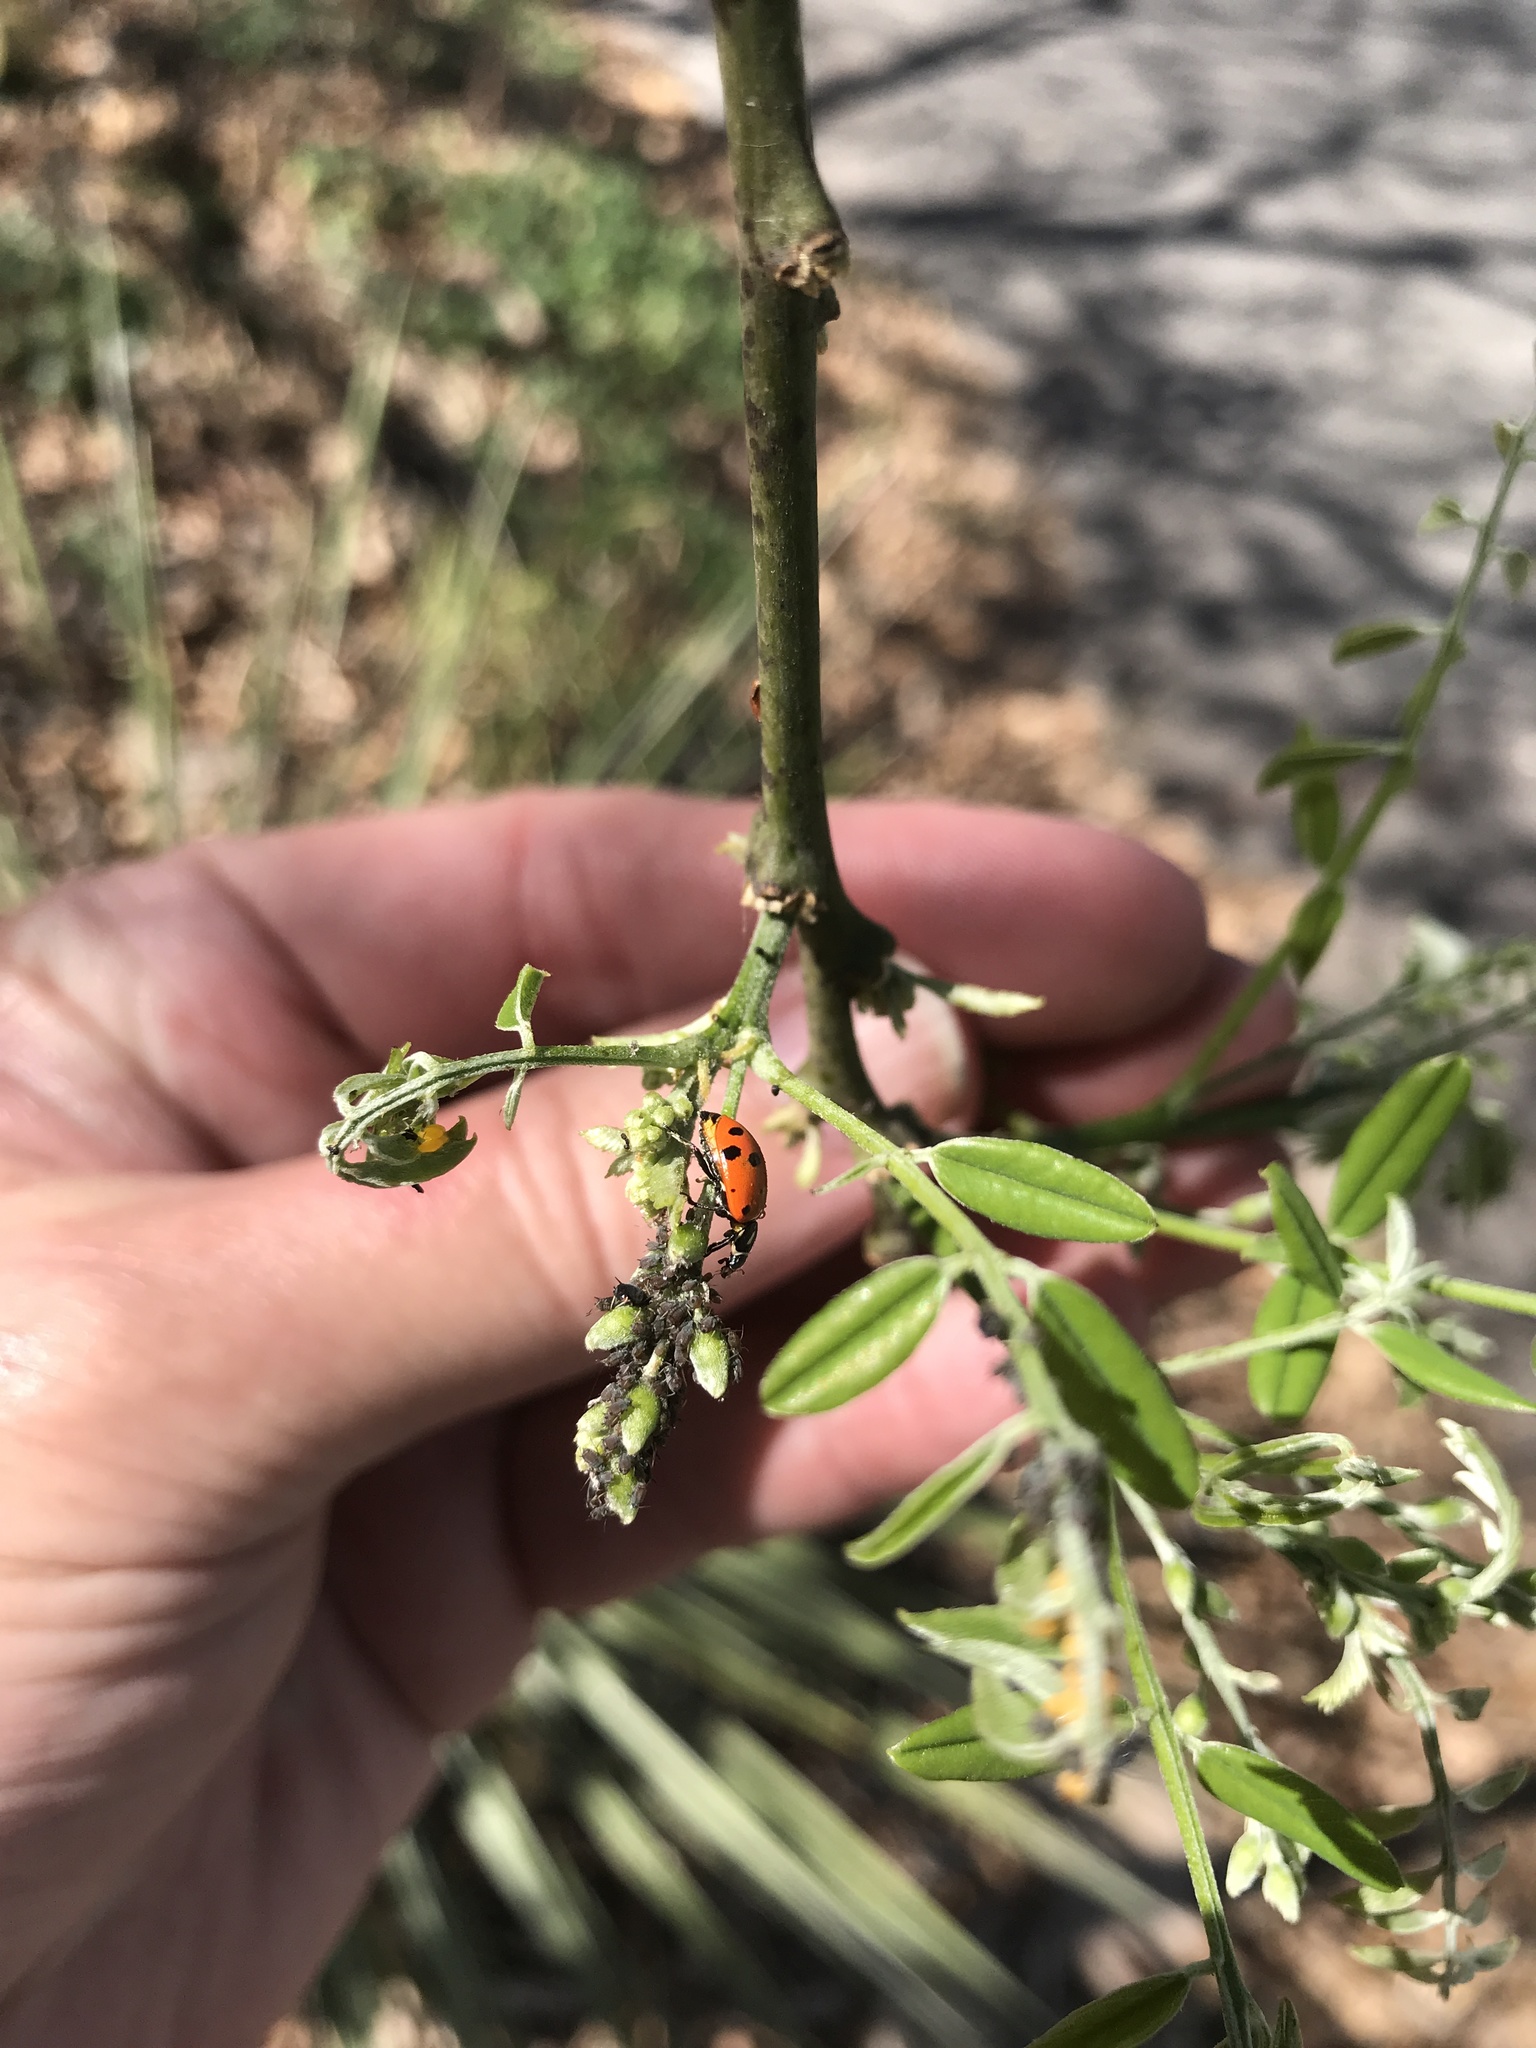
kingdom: Animalia
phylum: Arthropoda
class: Insecta
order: Coleoptera
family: Coccinellidae
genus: Hippodamia
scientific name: Hippodamia convergens
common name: Convergent lady beetle
